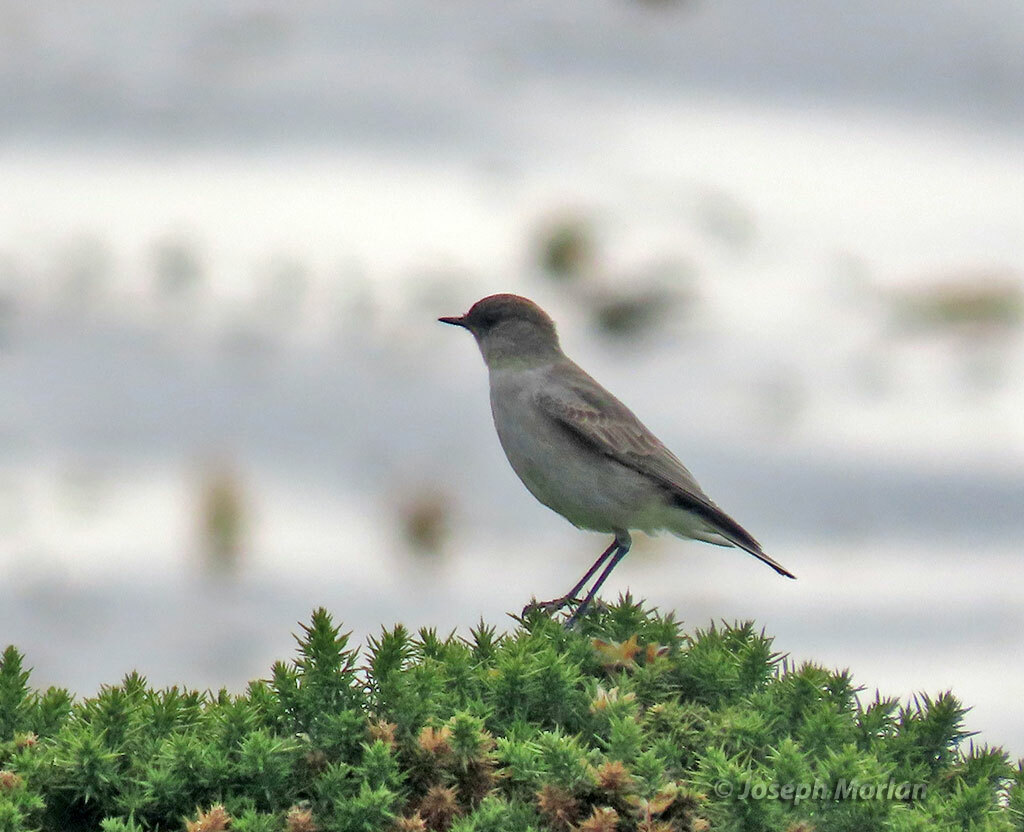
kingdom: Animalia
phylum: Chordata
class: Aves
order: Passeriformes
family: Tyrannidae
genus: Muscisaxicola
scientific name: Muscisaxicola maclovianus
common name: Dark-faced ground tyrant
